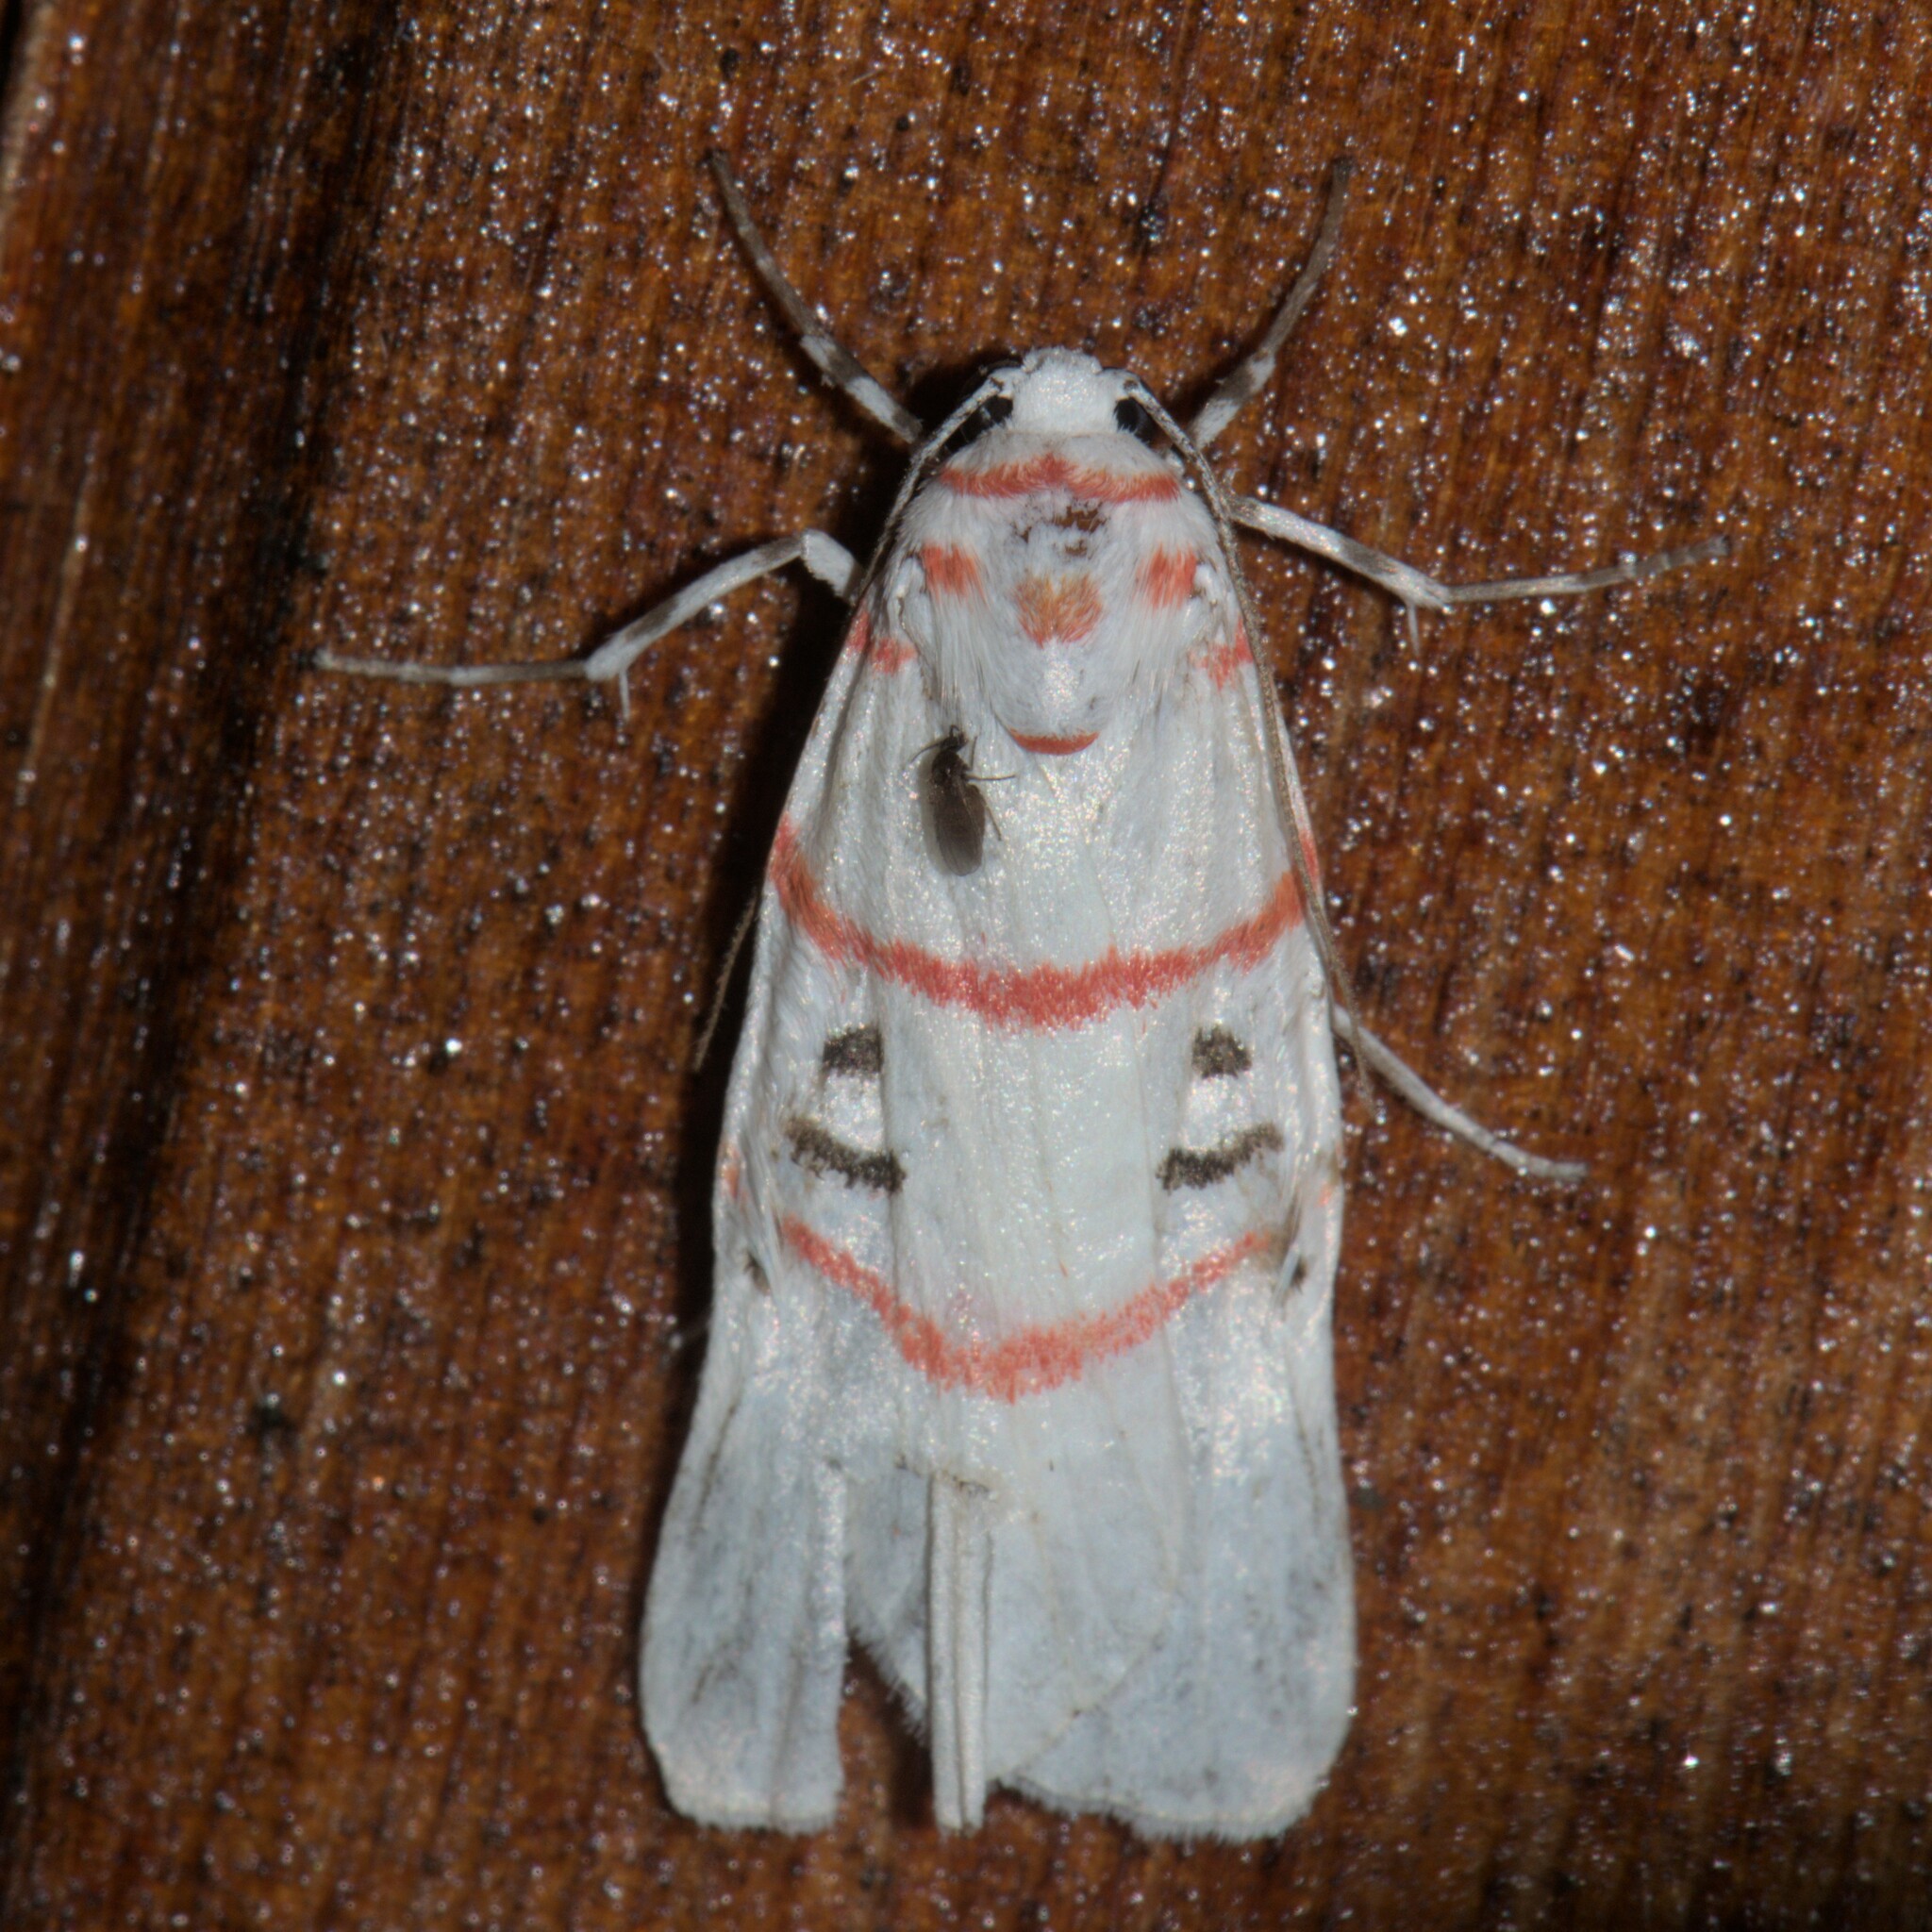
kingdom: Animalia
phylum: Arthropoda
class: Insecta
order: Lepidoptera
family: Erebidae
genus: Cyana
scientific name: Cyana signa
